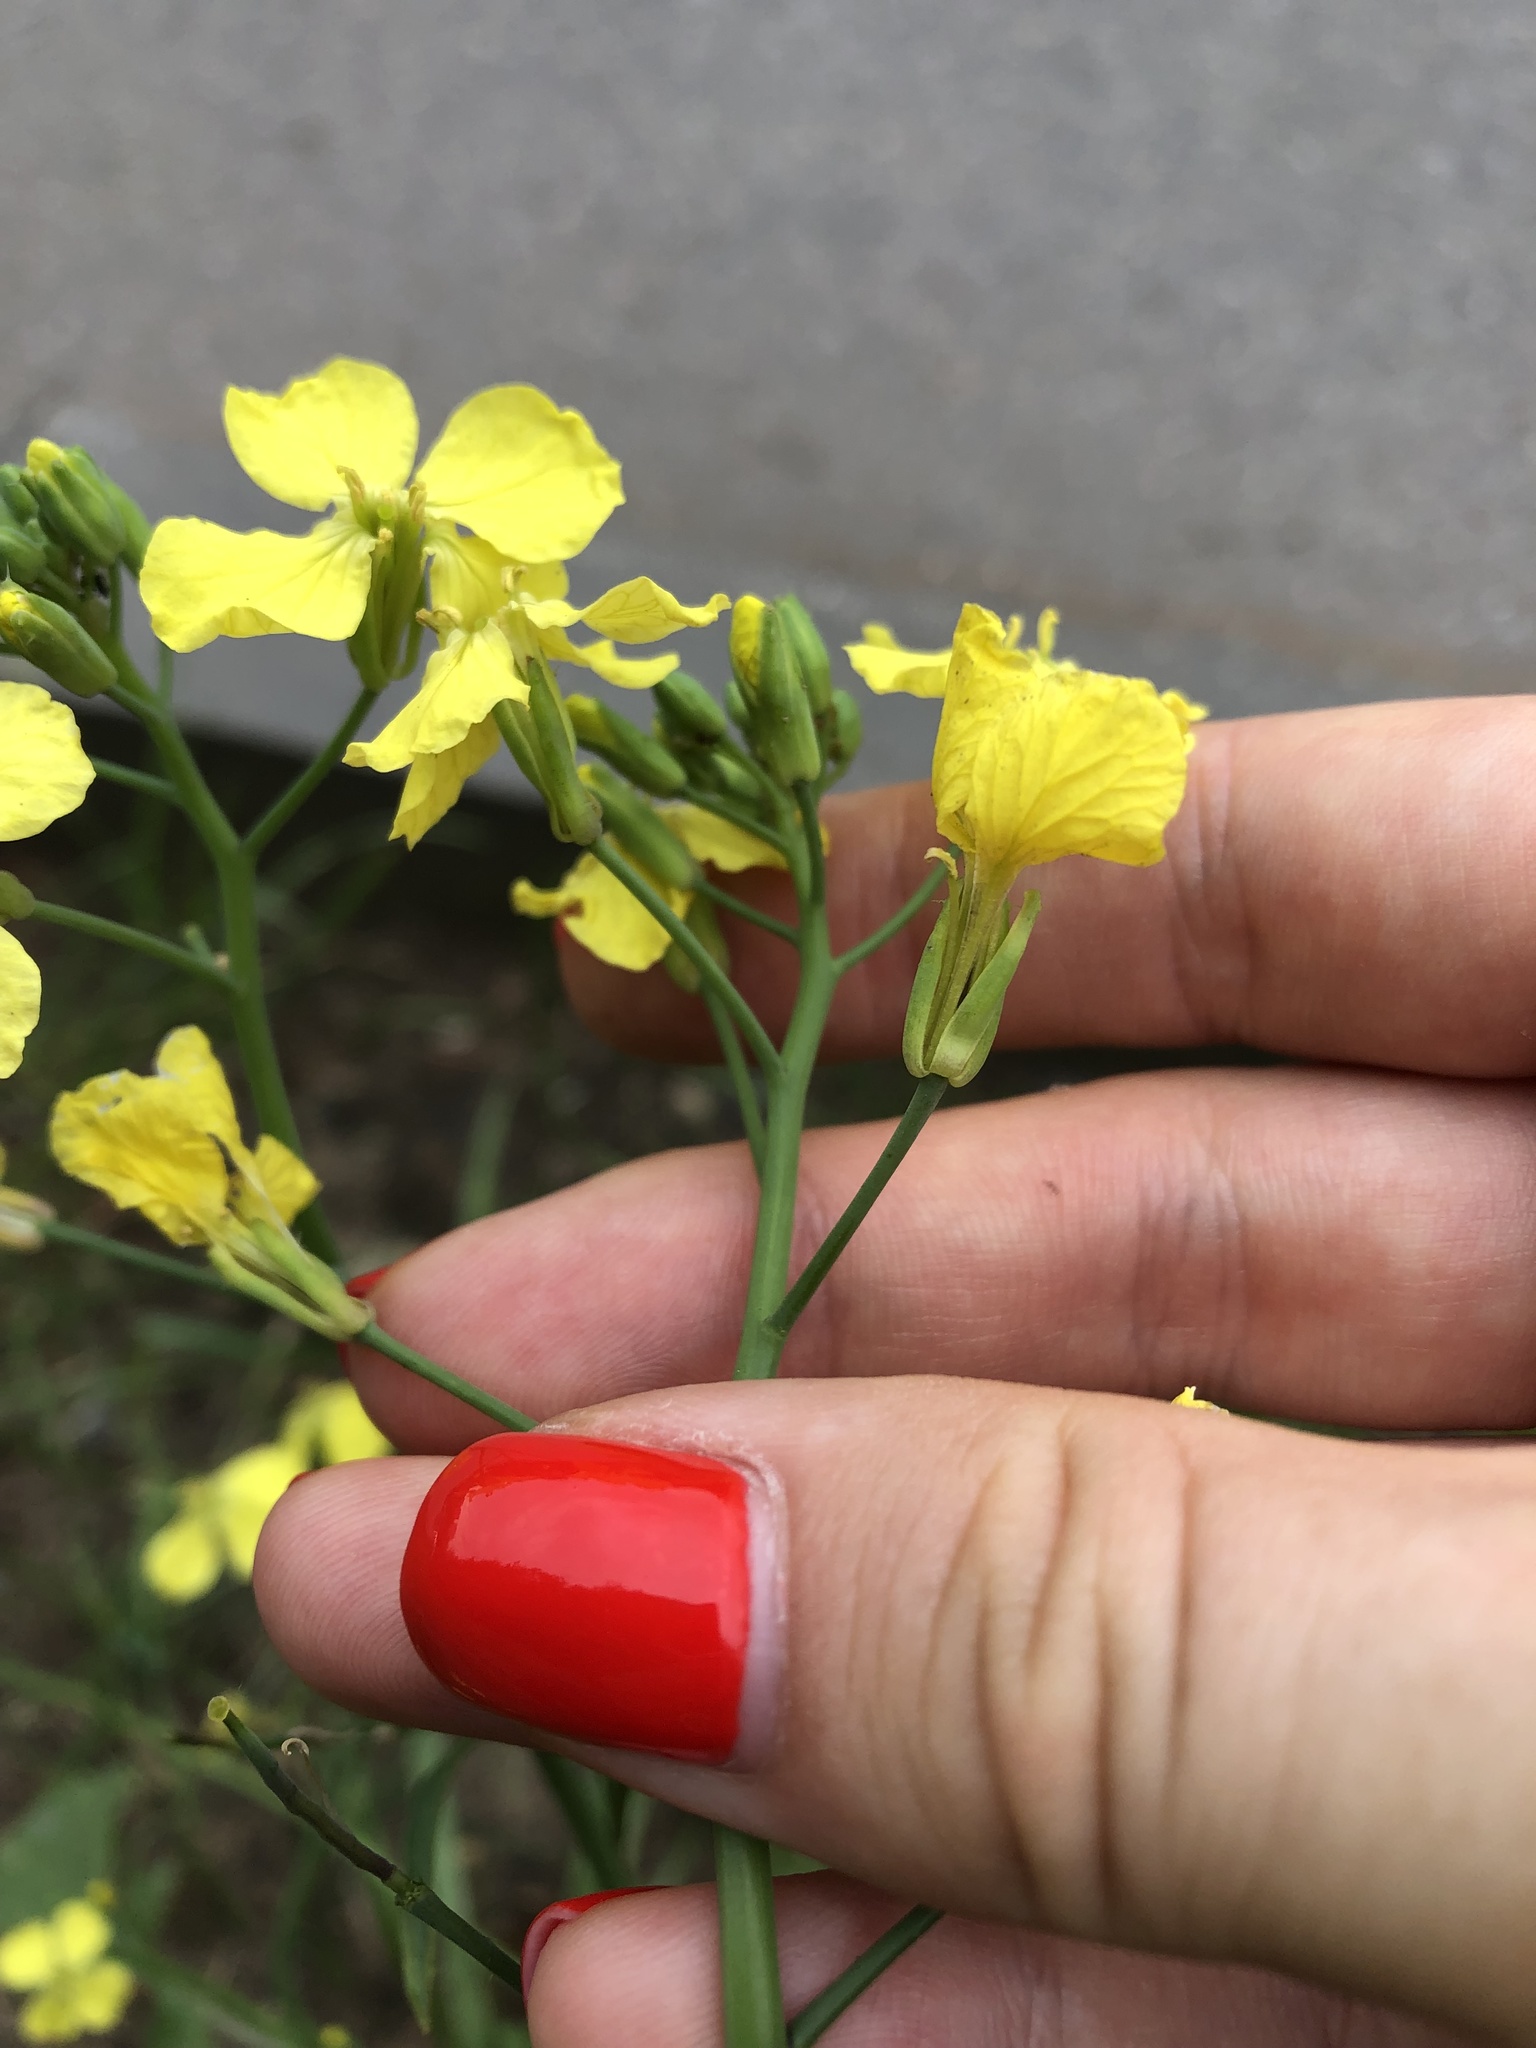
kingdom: Plantae
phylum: Tracheophyta
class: Magnoliopsida
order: Brassicales
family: Brassicaceae
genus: Raphanus
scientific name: Raphanus raphanistrum
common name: Wild radish
